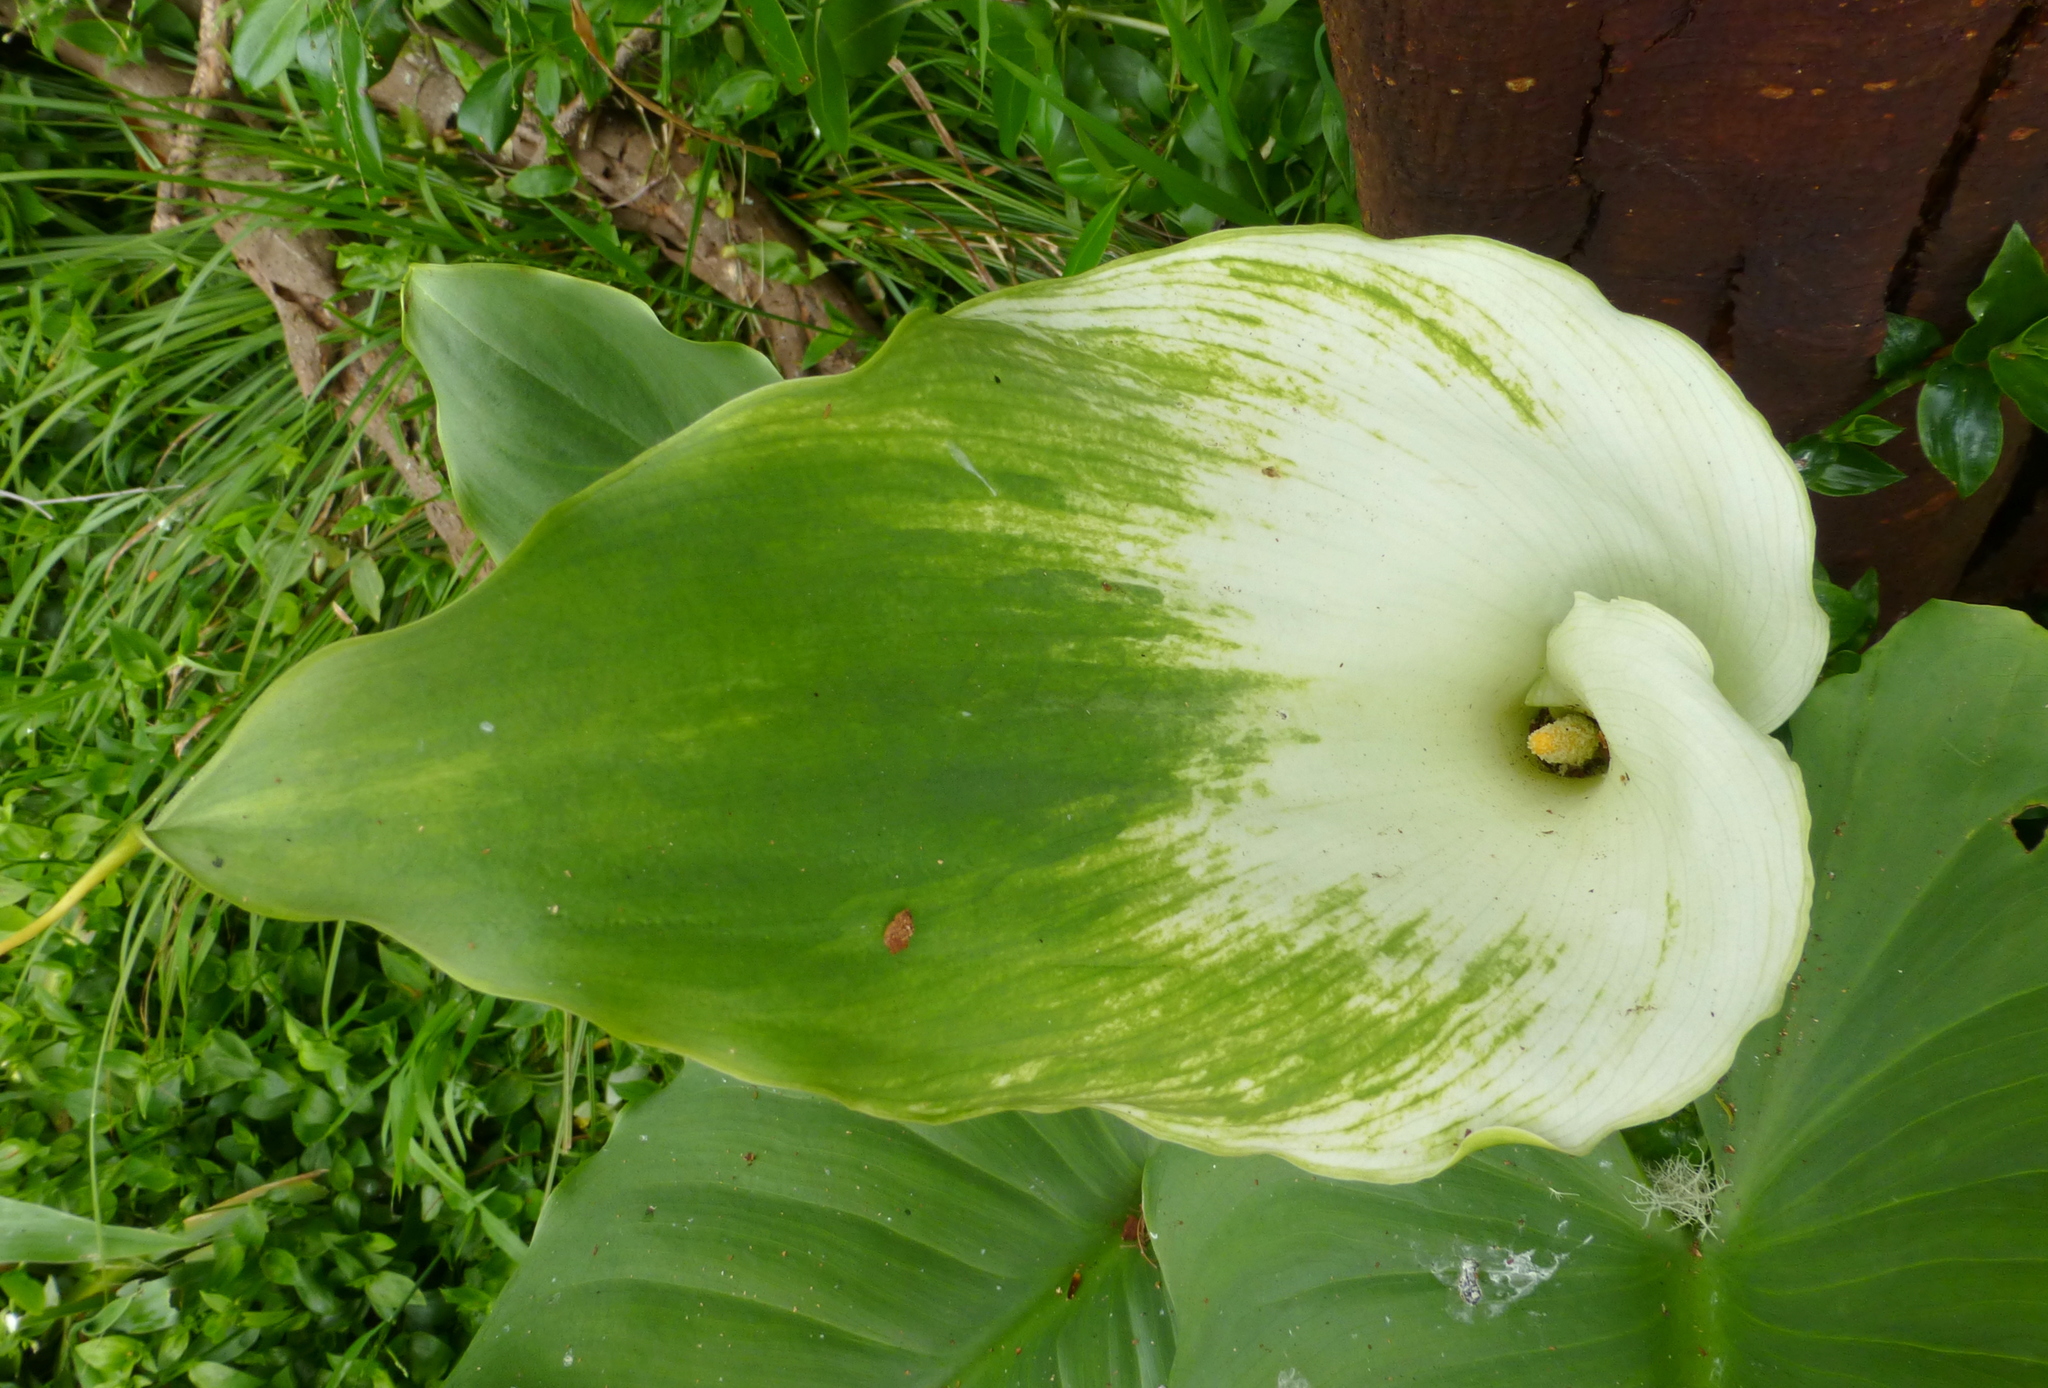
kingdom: Plantae
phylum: Tracheophyta
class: Liliopsida
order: Alismatales
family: Araceae
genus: Zantedeschia
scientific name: Zantedeschia aethiopica
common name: Altar-lily
